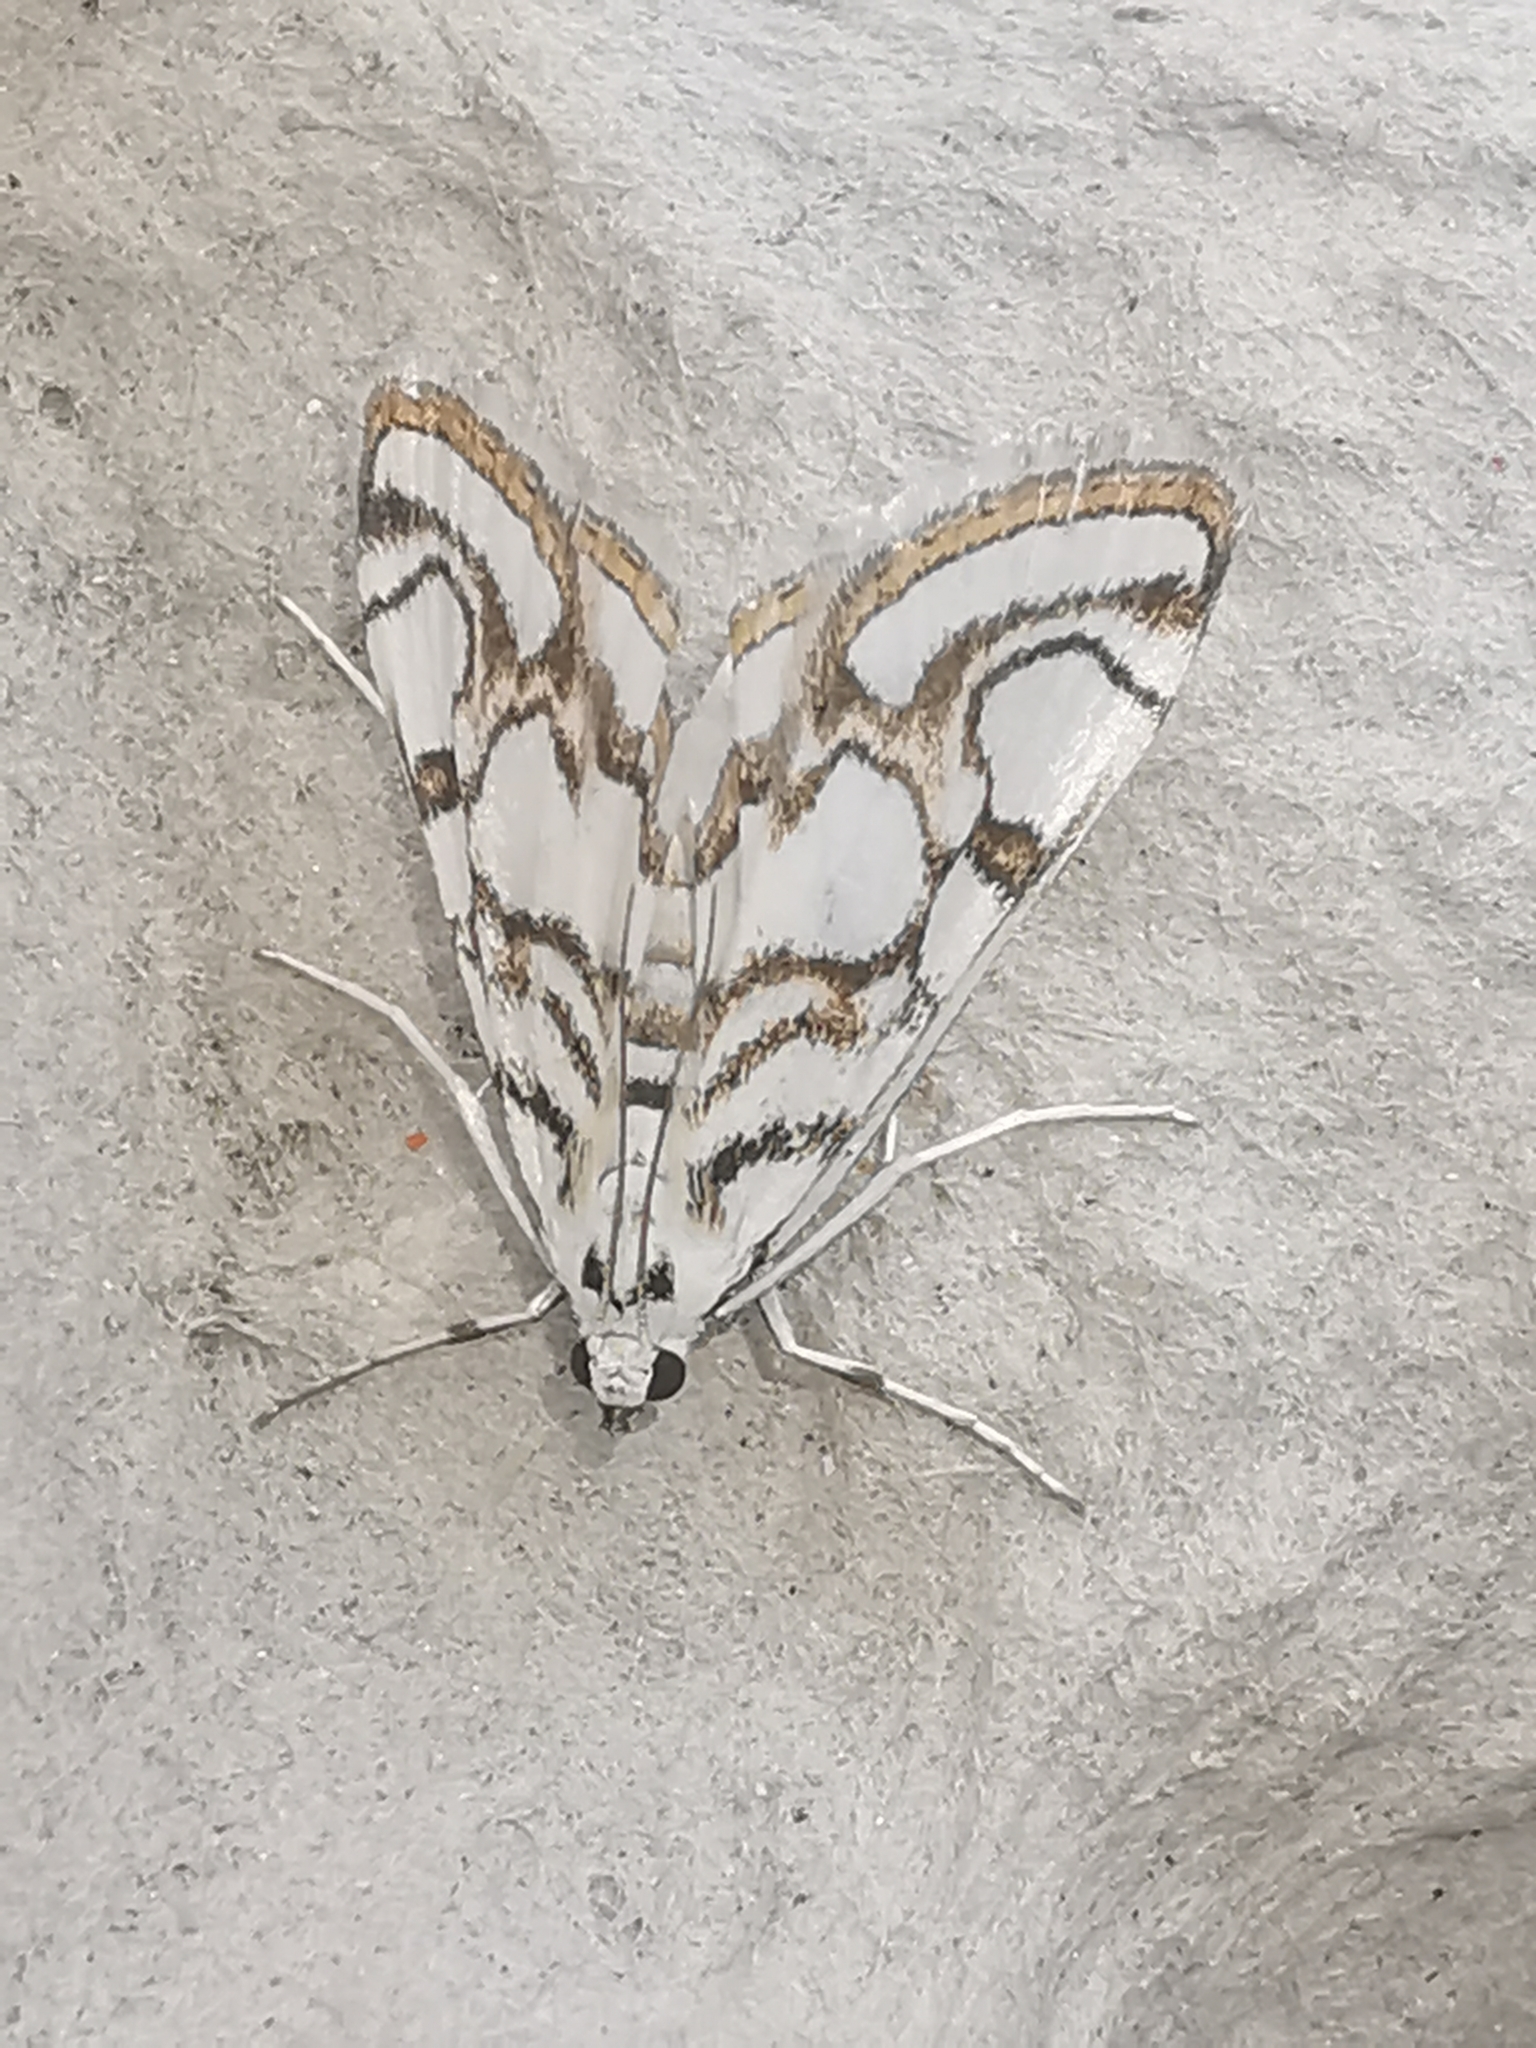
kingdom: Animalia
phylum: Arthropoda
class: Insecta
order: Lepidoptera
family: Crambidae
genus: Nymphula
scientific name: Nymphula nitidulata
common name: Beautiful china mark
